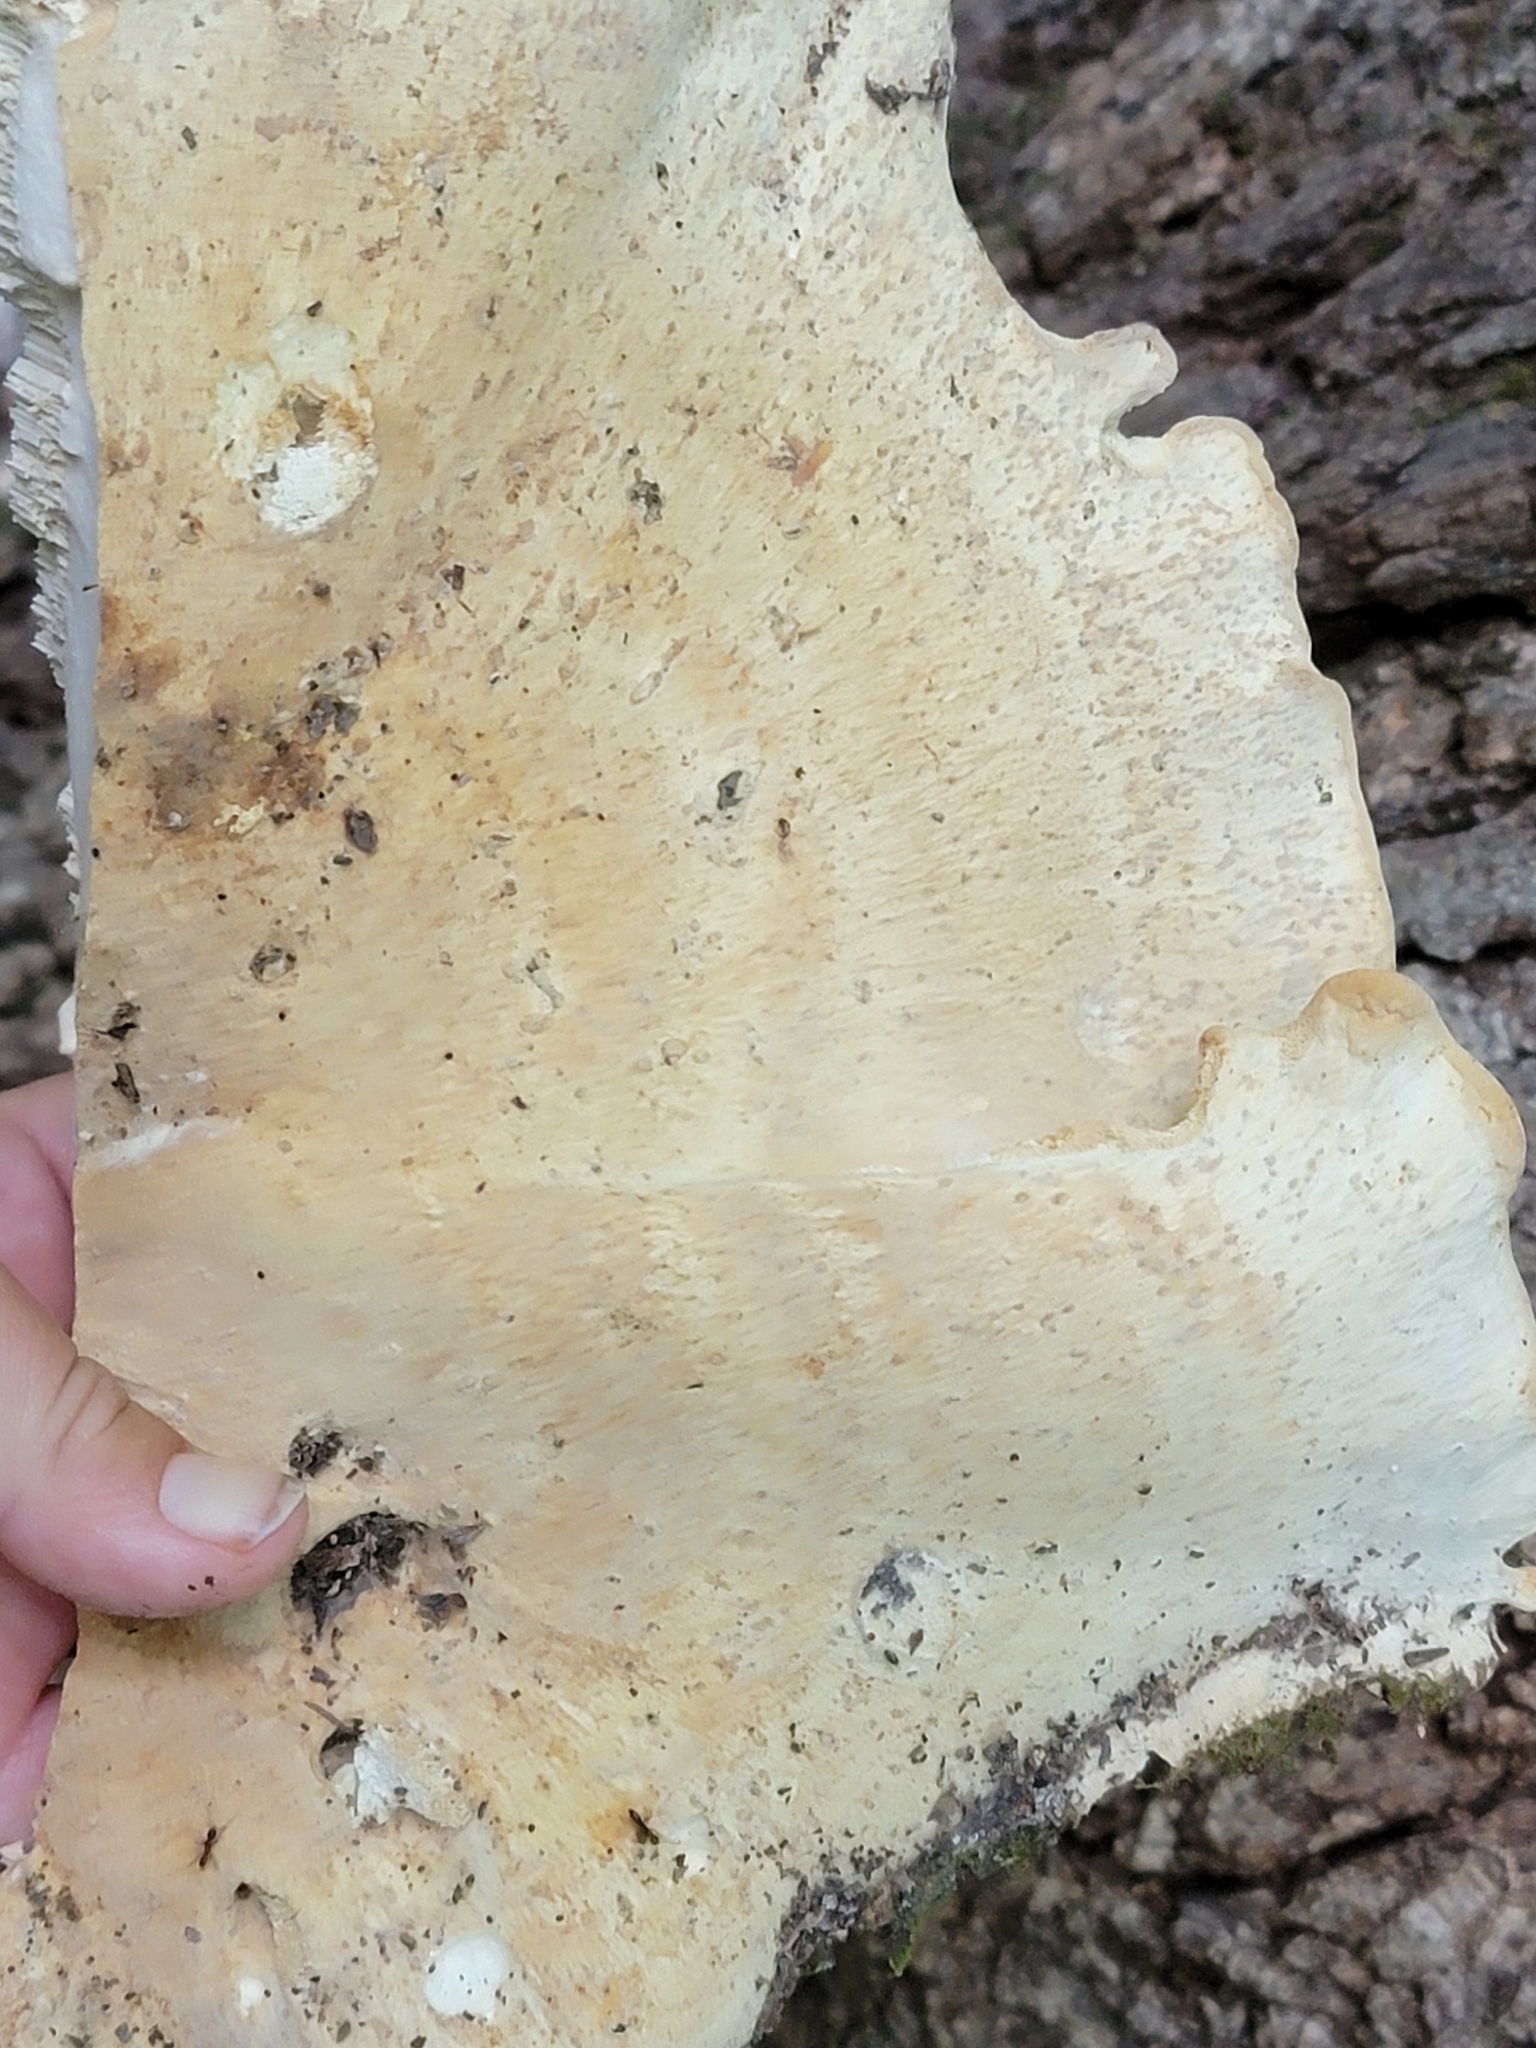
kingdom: Fungi
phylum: Basidiomycota
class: Agaricomycetes
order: Russulales
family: Bondarzewiaceae
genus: Bondarzewia
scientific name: Bondarzewia berkeleyi
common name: Berkeley's polypore
